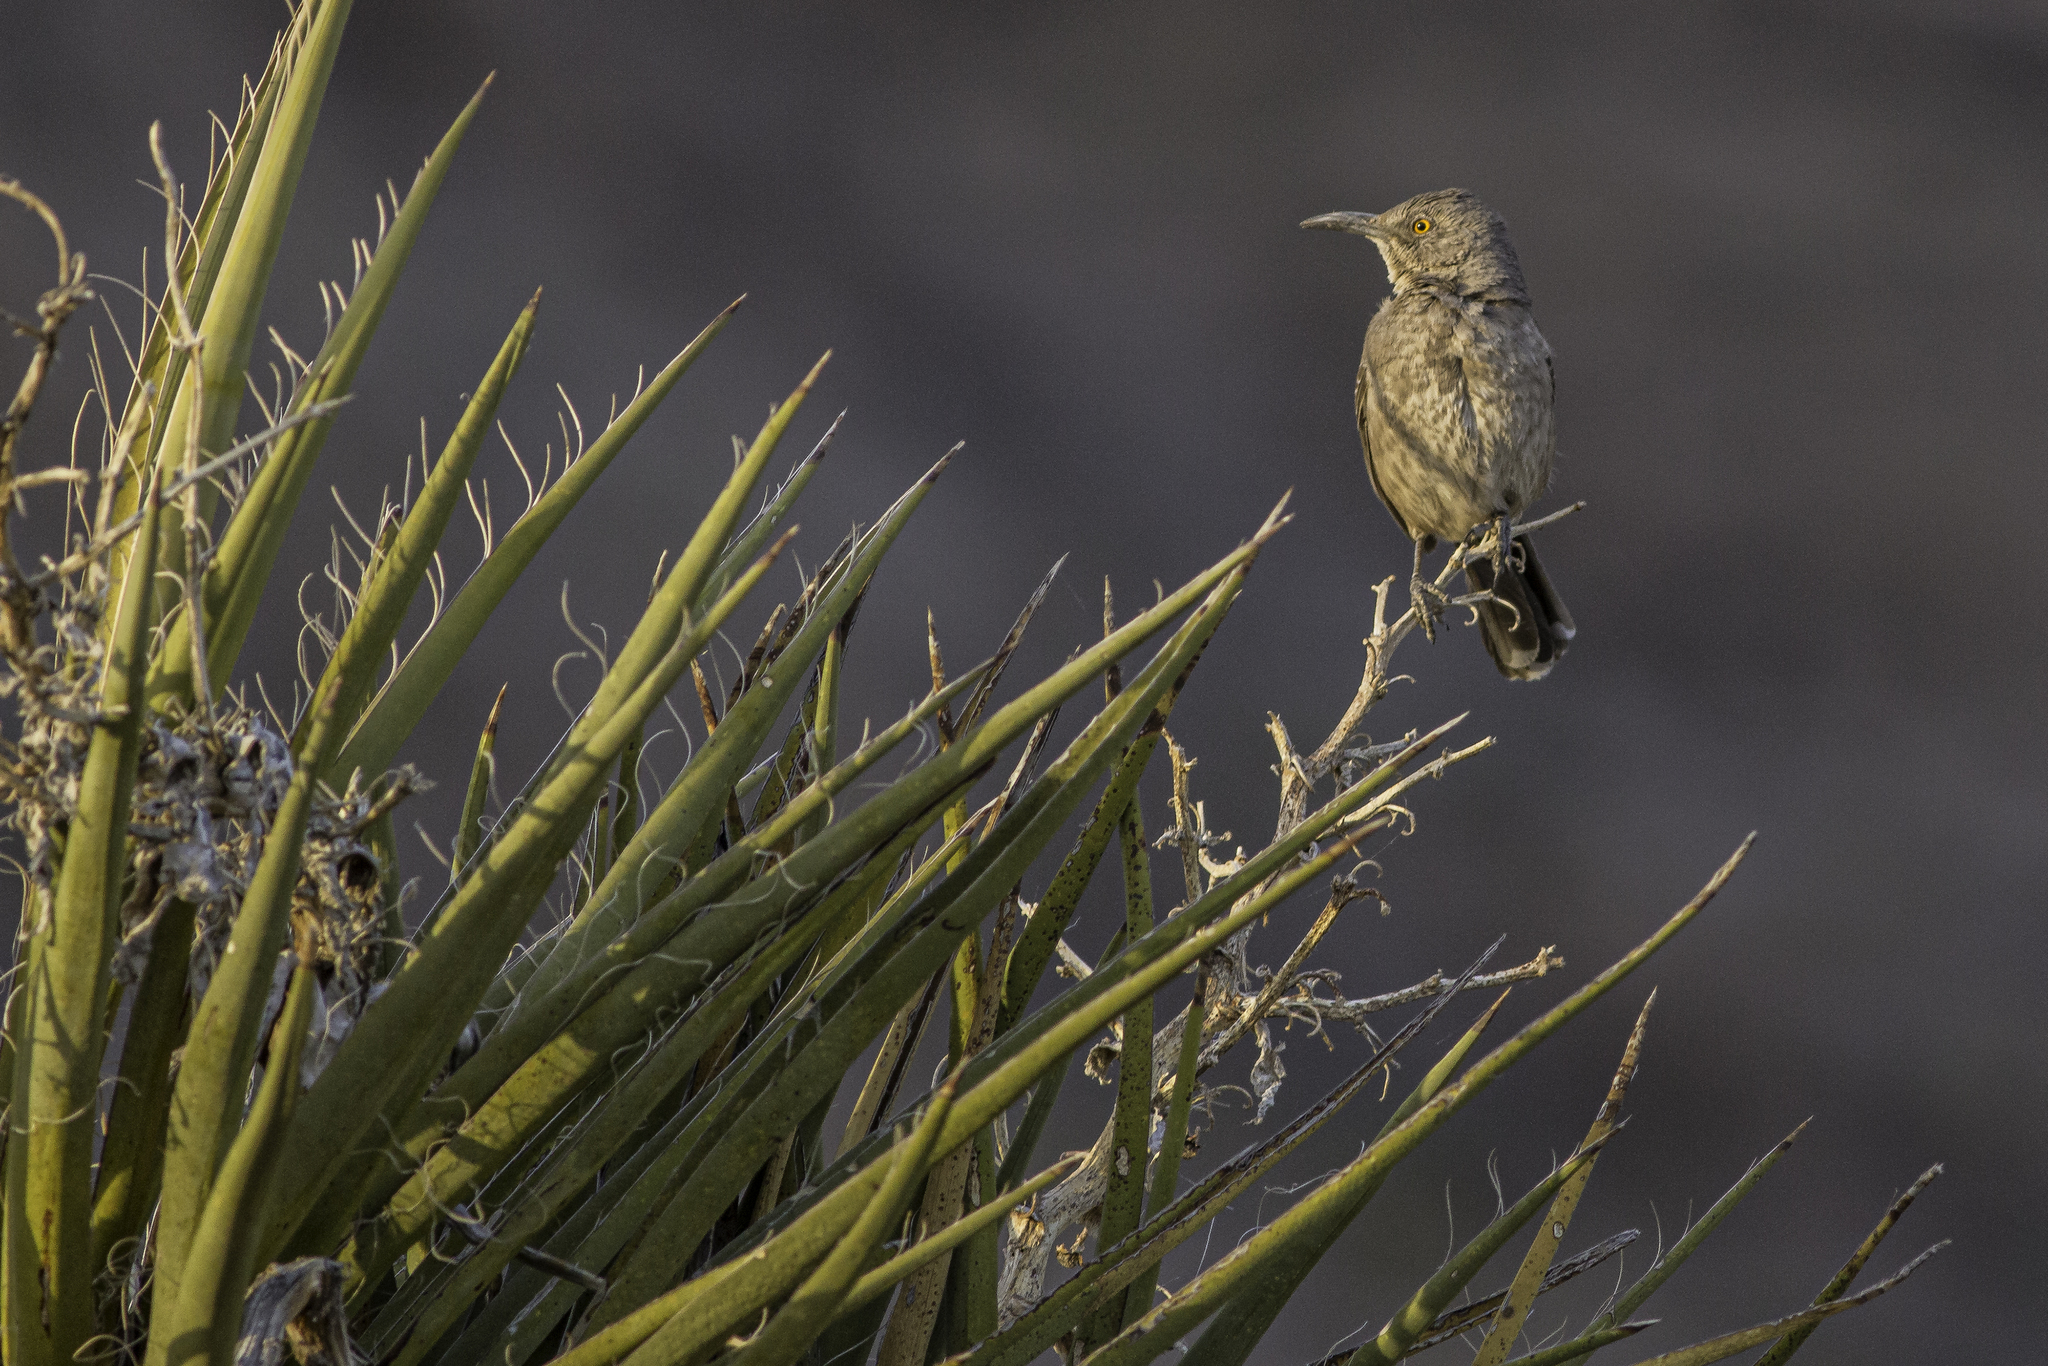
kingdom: Animalia
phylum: Chordata
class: Aves
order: Passeriformes
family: Mimidae
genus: Toxostoma
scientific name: Toxostoma curvirostre
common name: Curve-billed thrasher
